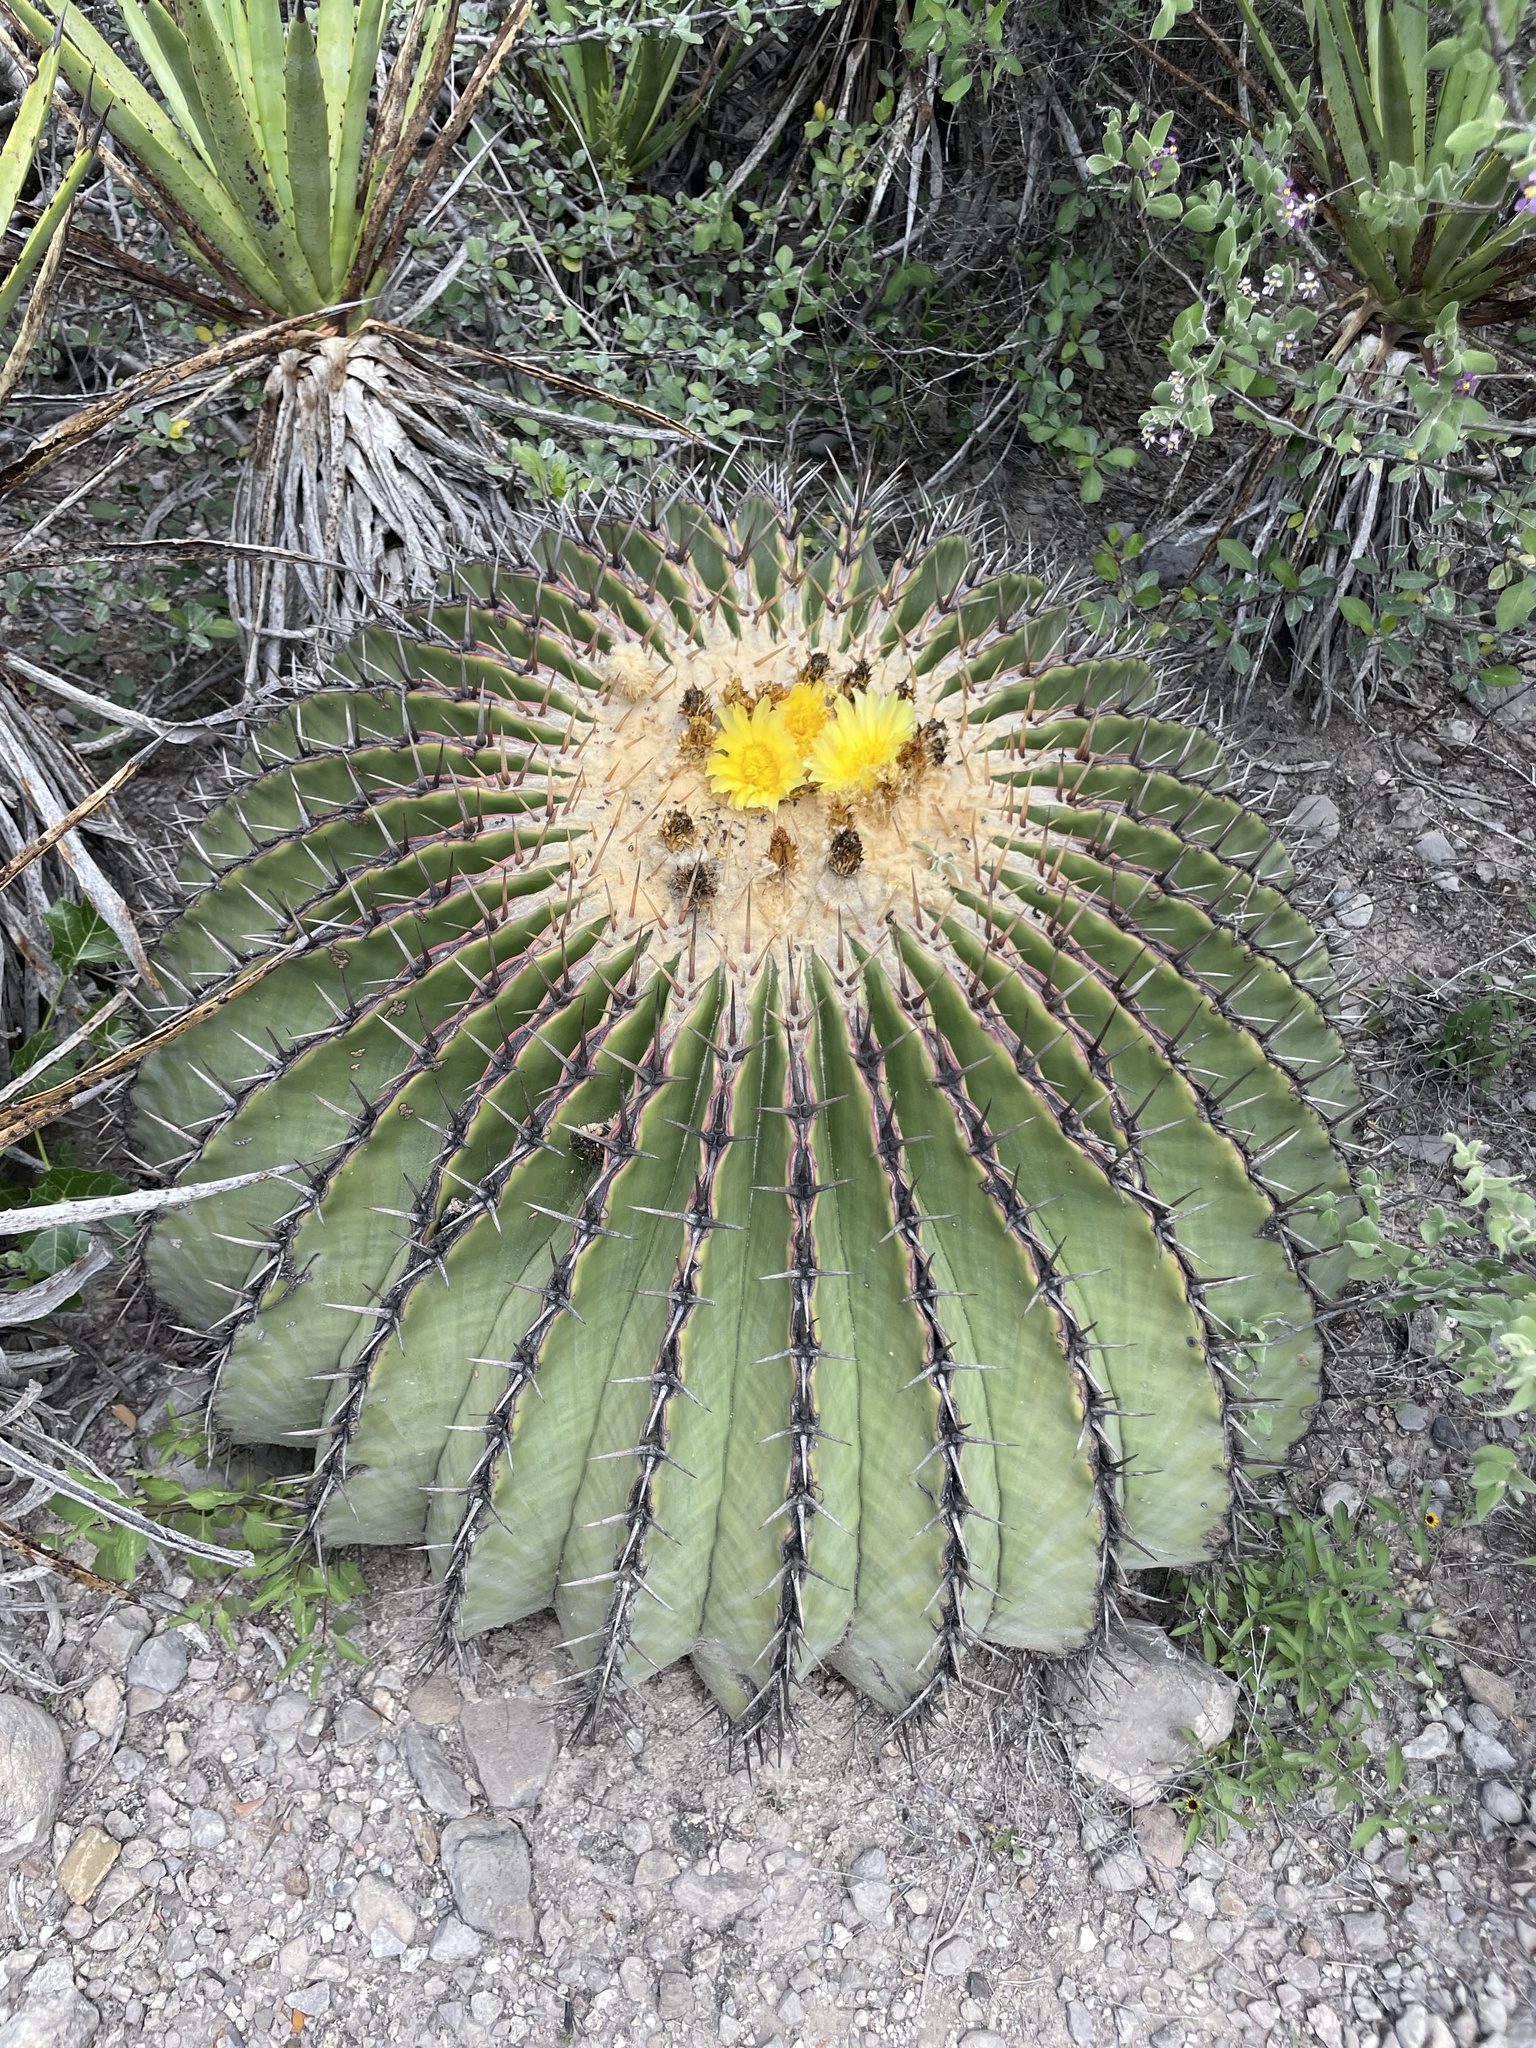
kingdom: Plantae
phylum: Tracheophyta
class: Magnoliopsida
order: Caryophyllales
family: Cactaceae
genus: Echinocactus
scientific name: Echinocactus platyacanthus
